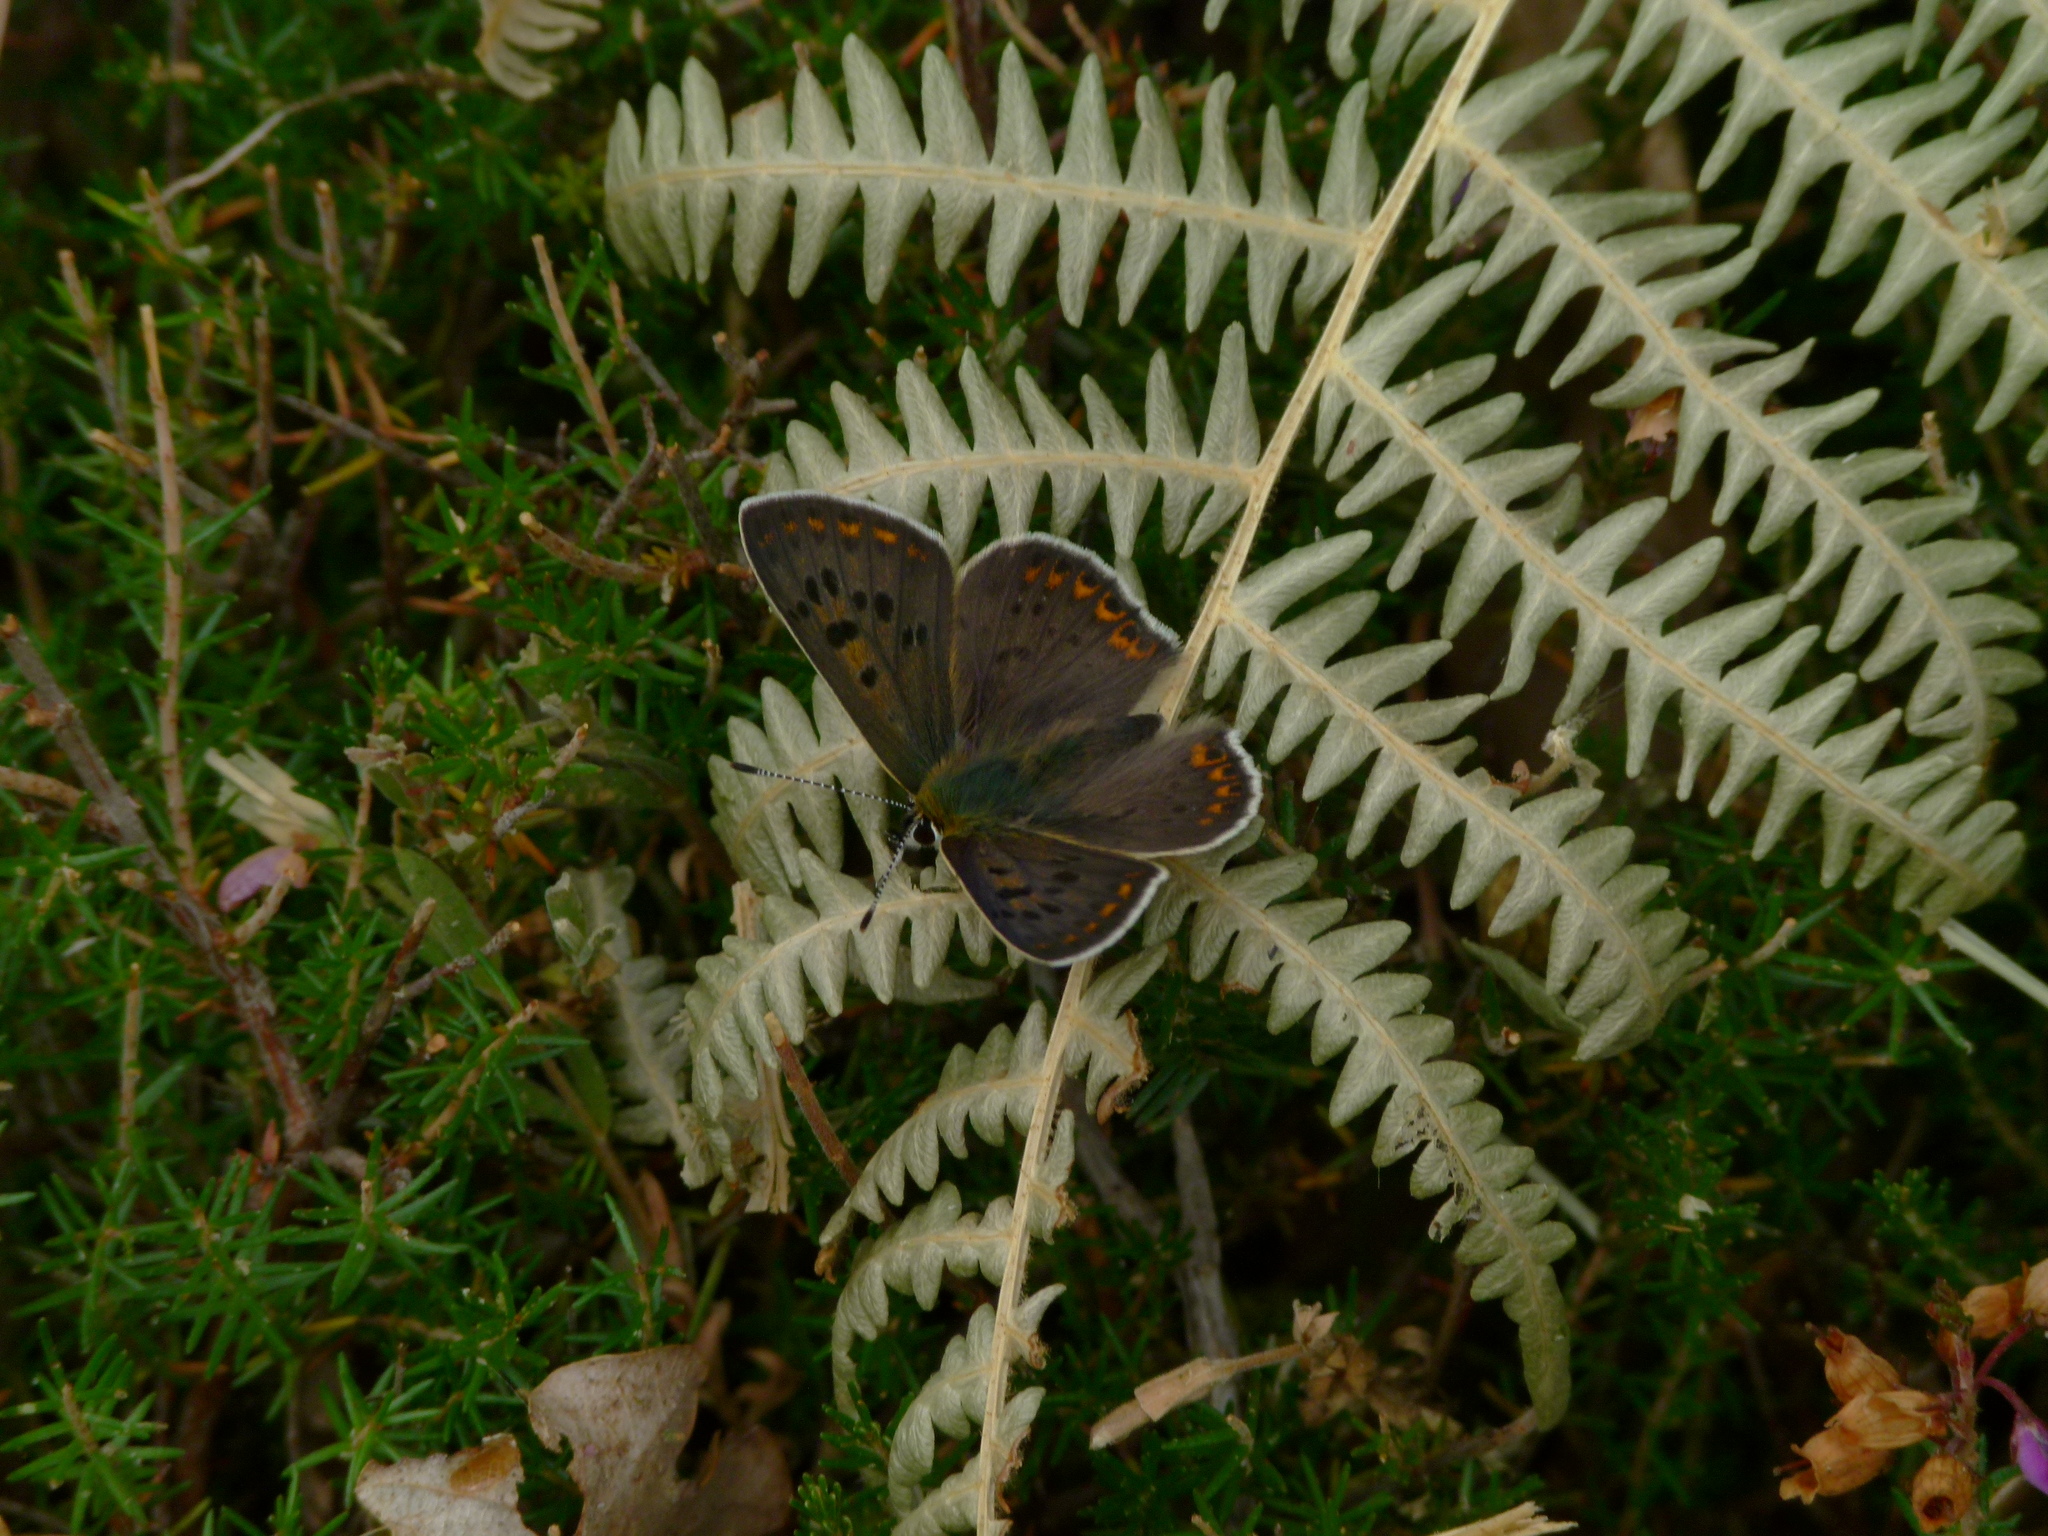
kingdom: Animalia
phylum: Arthropoda
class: Insecta
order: Lepidoptera
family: Lycaenidae
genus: Loweia
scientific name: Loweia tityrus
